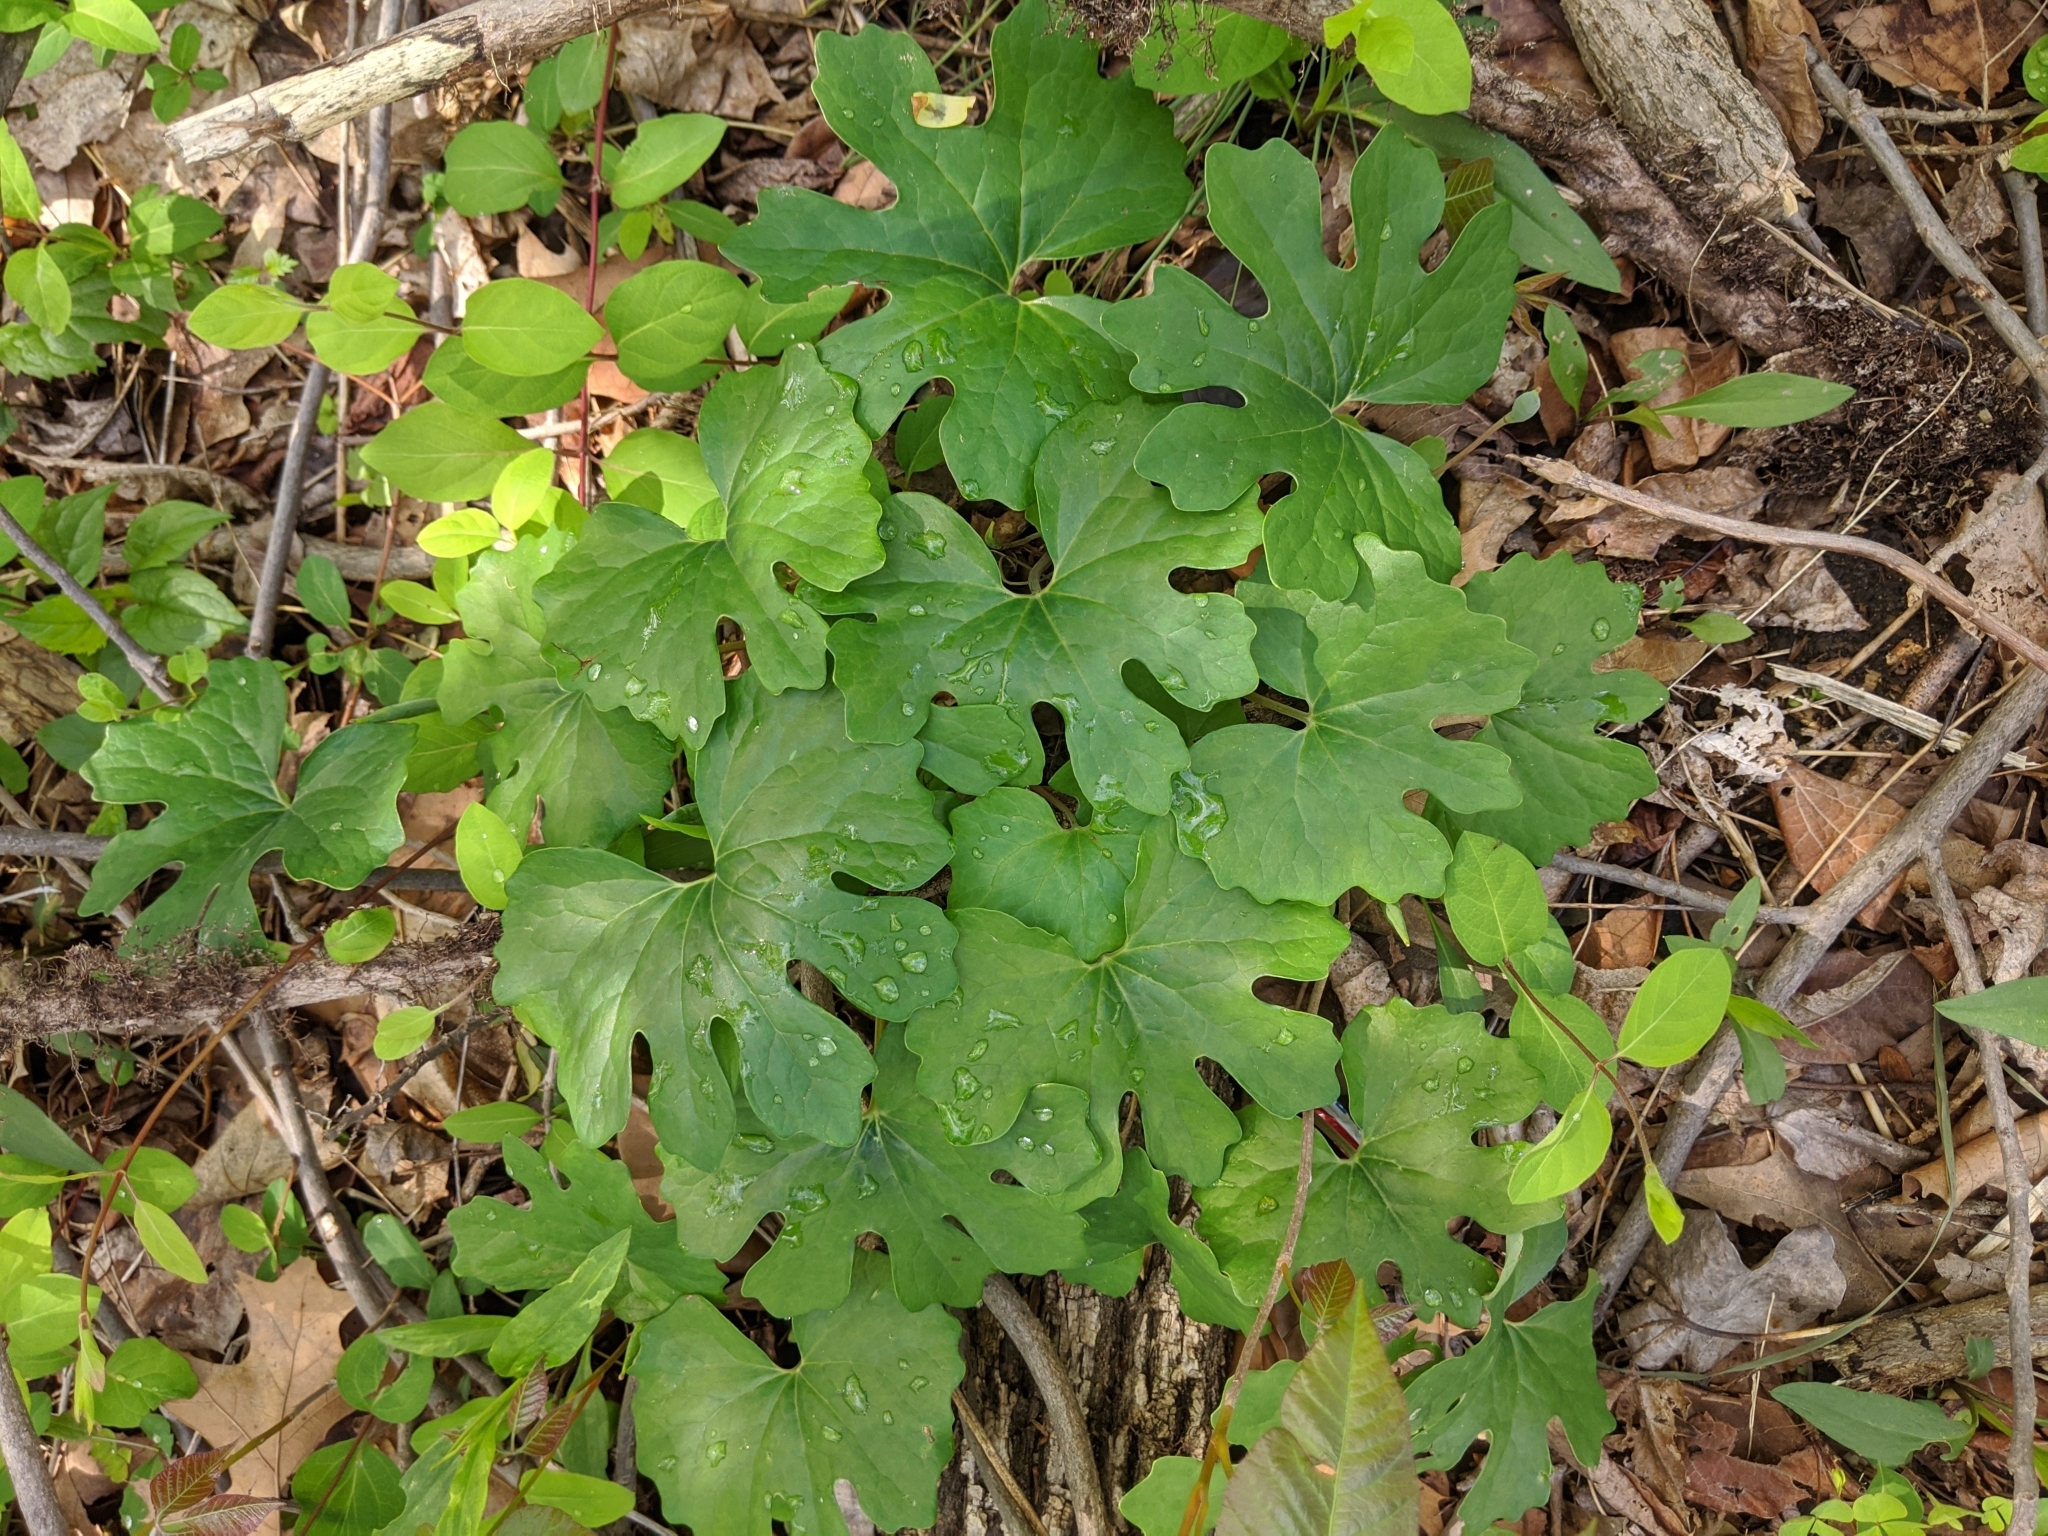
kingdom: Plantae
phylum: Tracheophyta
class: Magnoliopsida
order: Ranunculales
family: Papaveraceae
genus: Sanguinaria
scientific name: Sanguinaria canadensis
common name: Bloodroot
